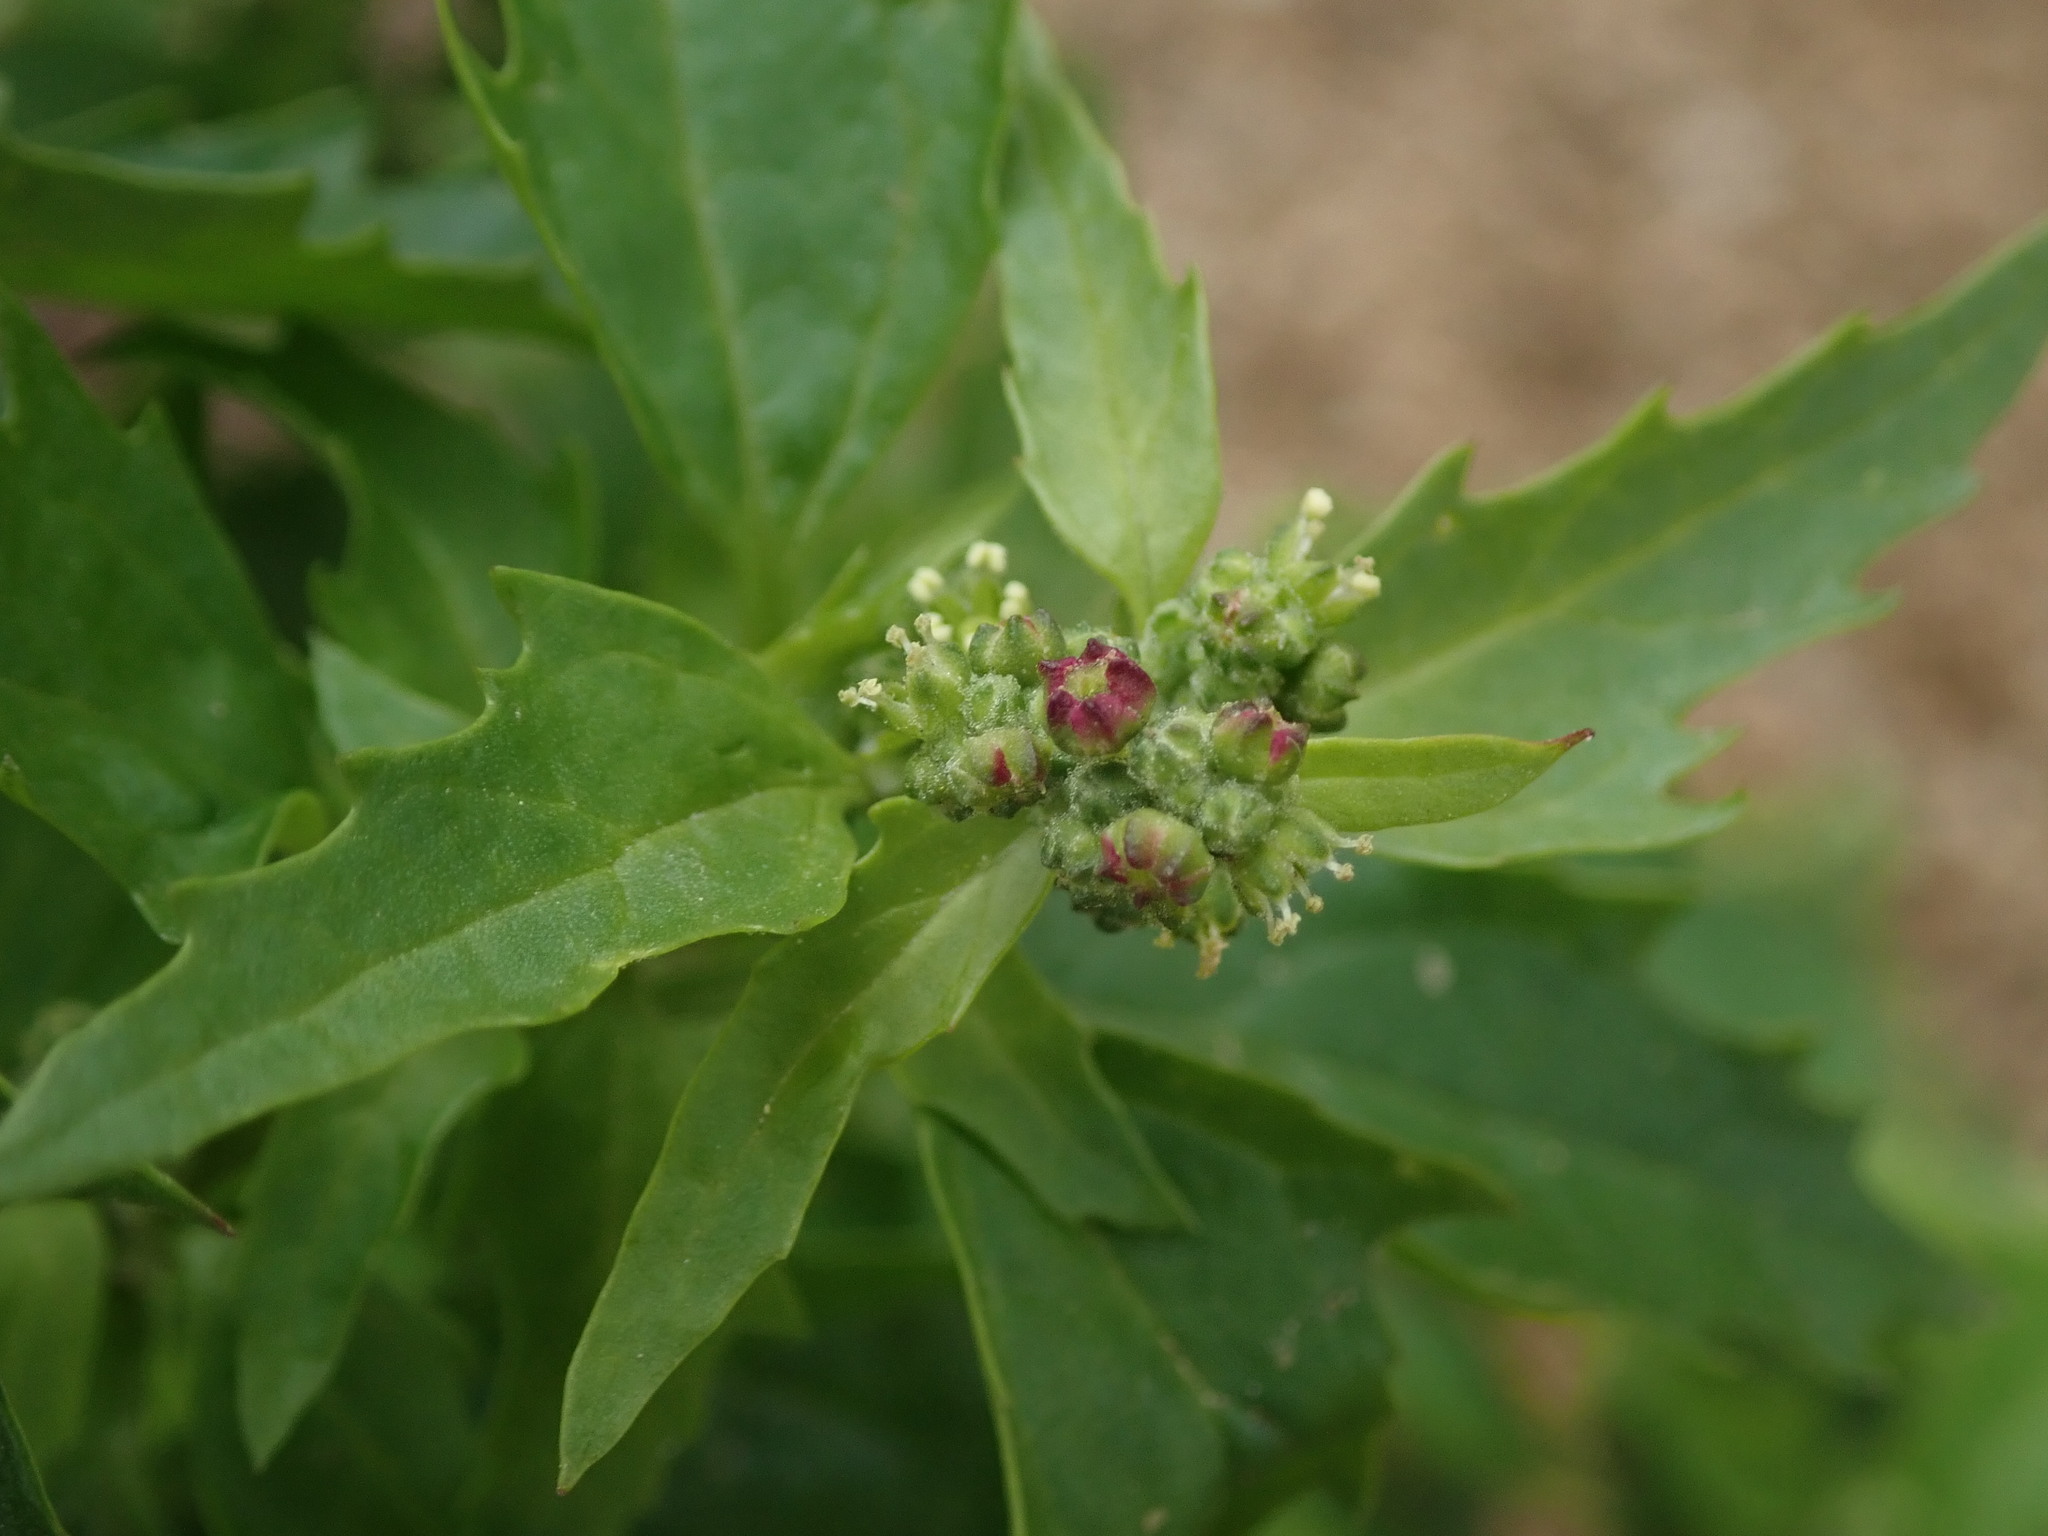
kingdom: Plantae
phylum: Tracheophyta
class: Magnoliopsida
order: Caryophyllales
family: Amaranthaceae
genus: Chenopodiastrum
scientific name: Chenopodiastrum murale
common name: Sowbane
